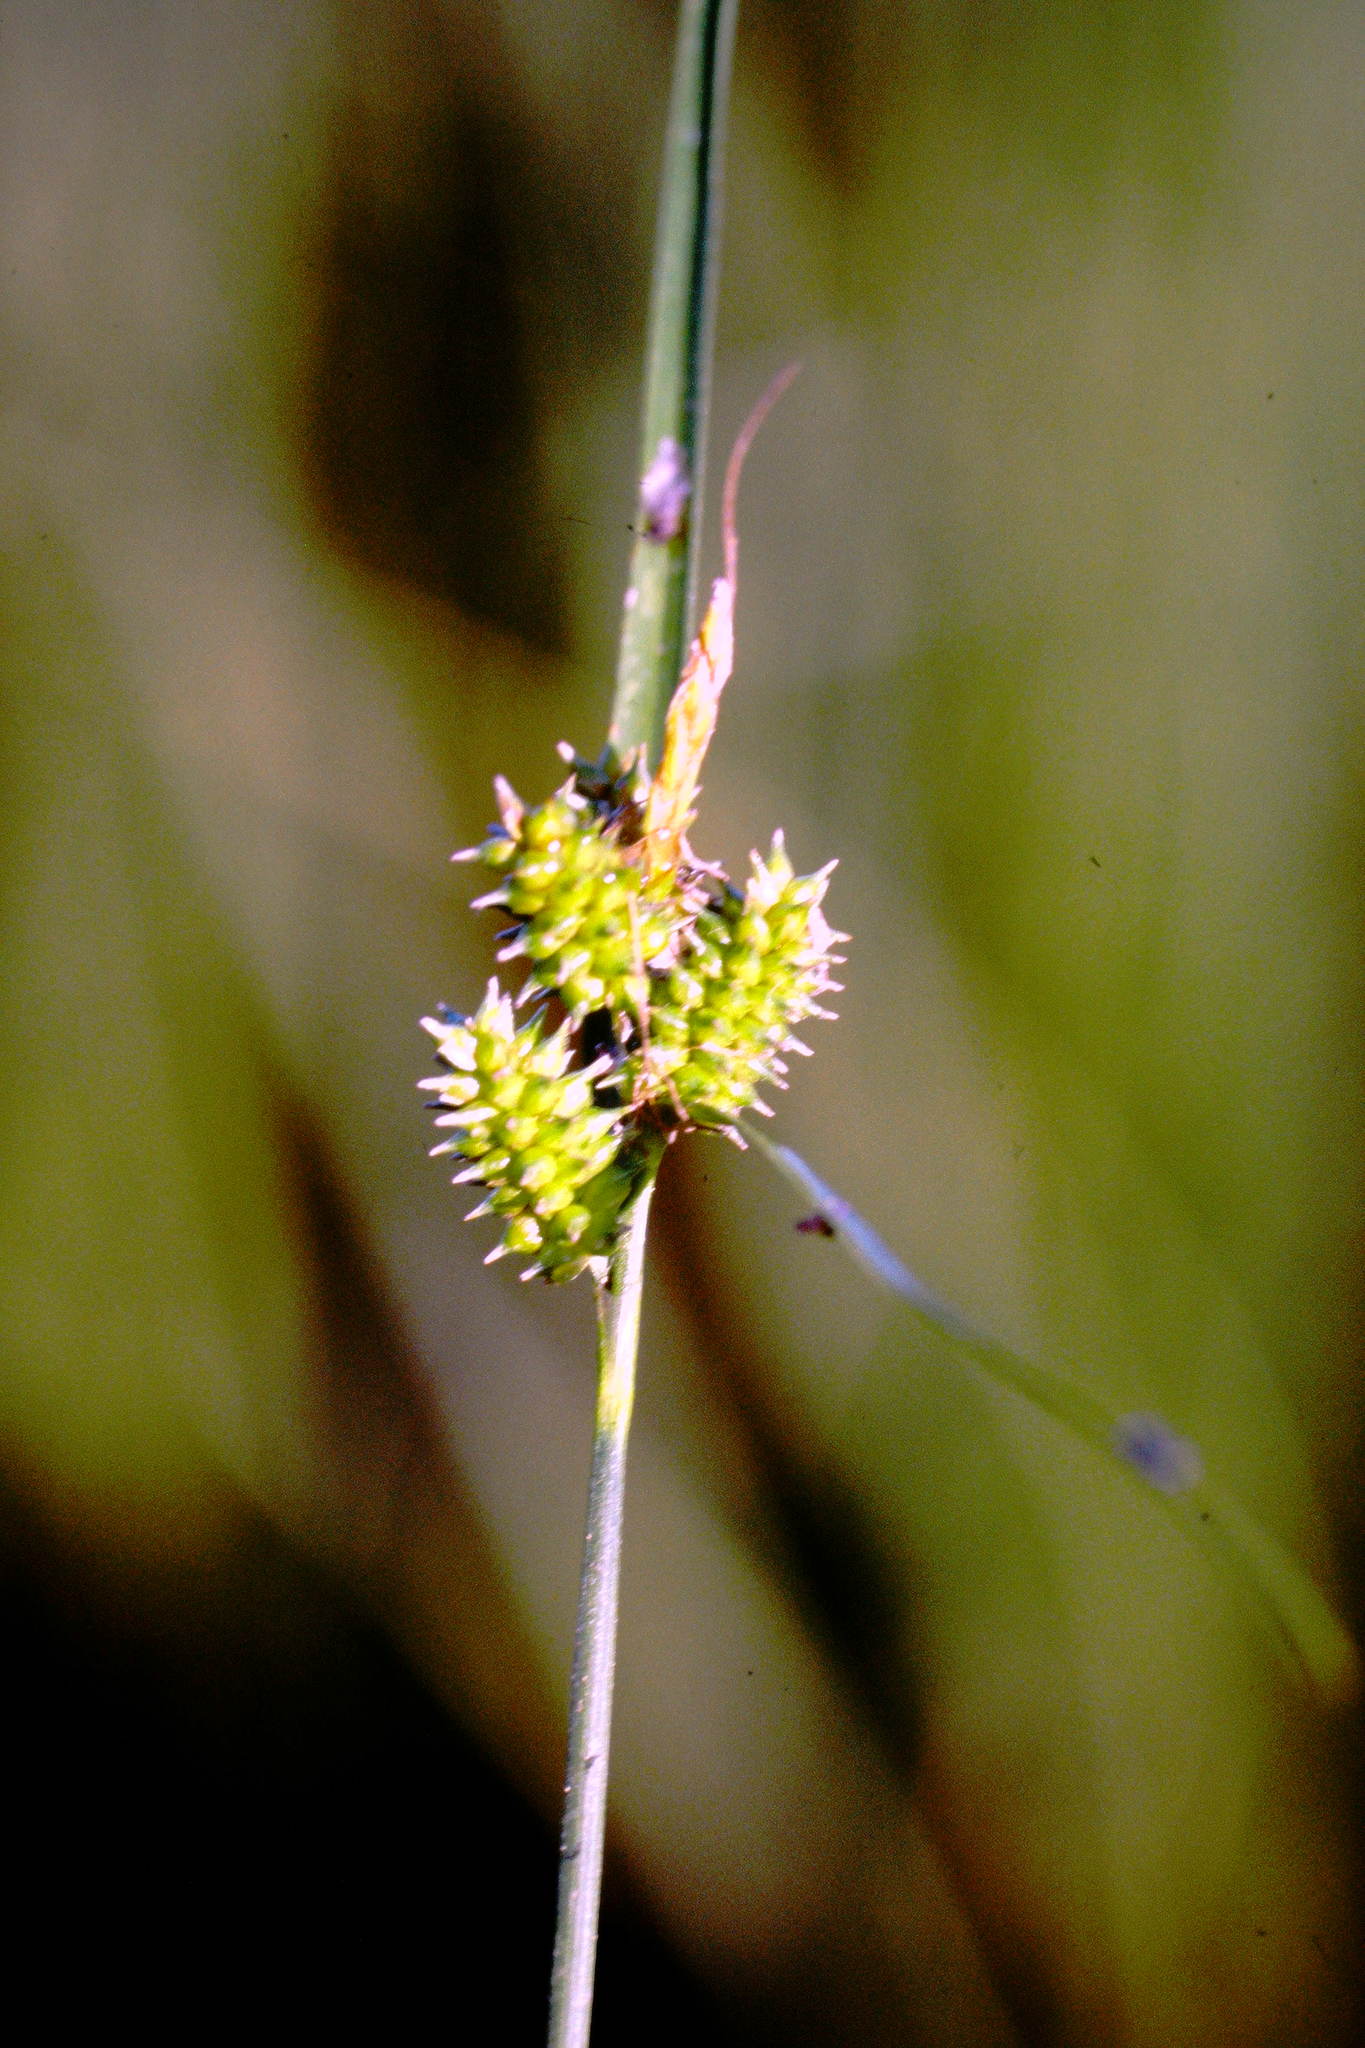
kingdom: Plantae
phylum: Tracheophyta
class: Liliopsida
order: Poales
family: Cyperaceae
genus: Carex
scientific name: Carex
